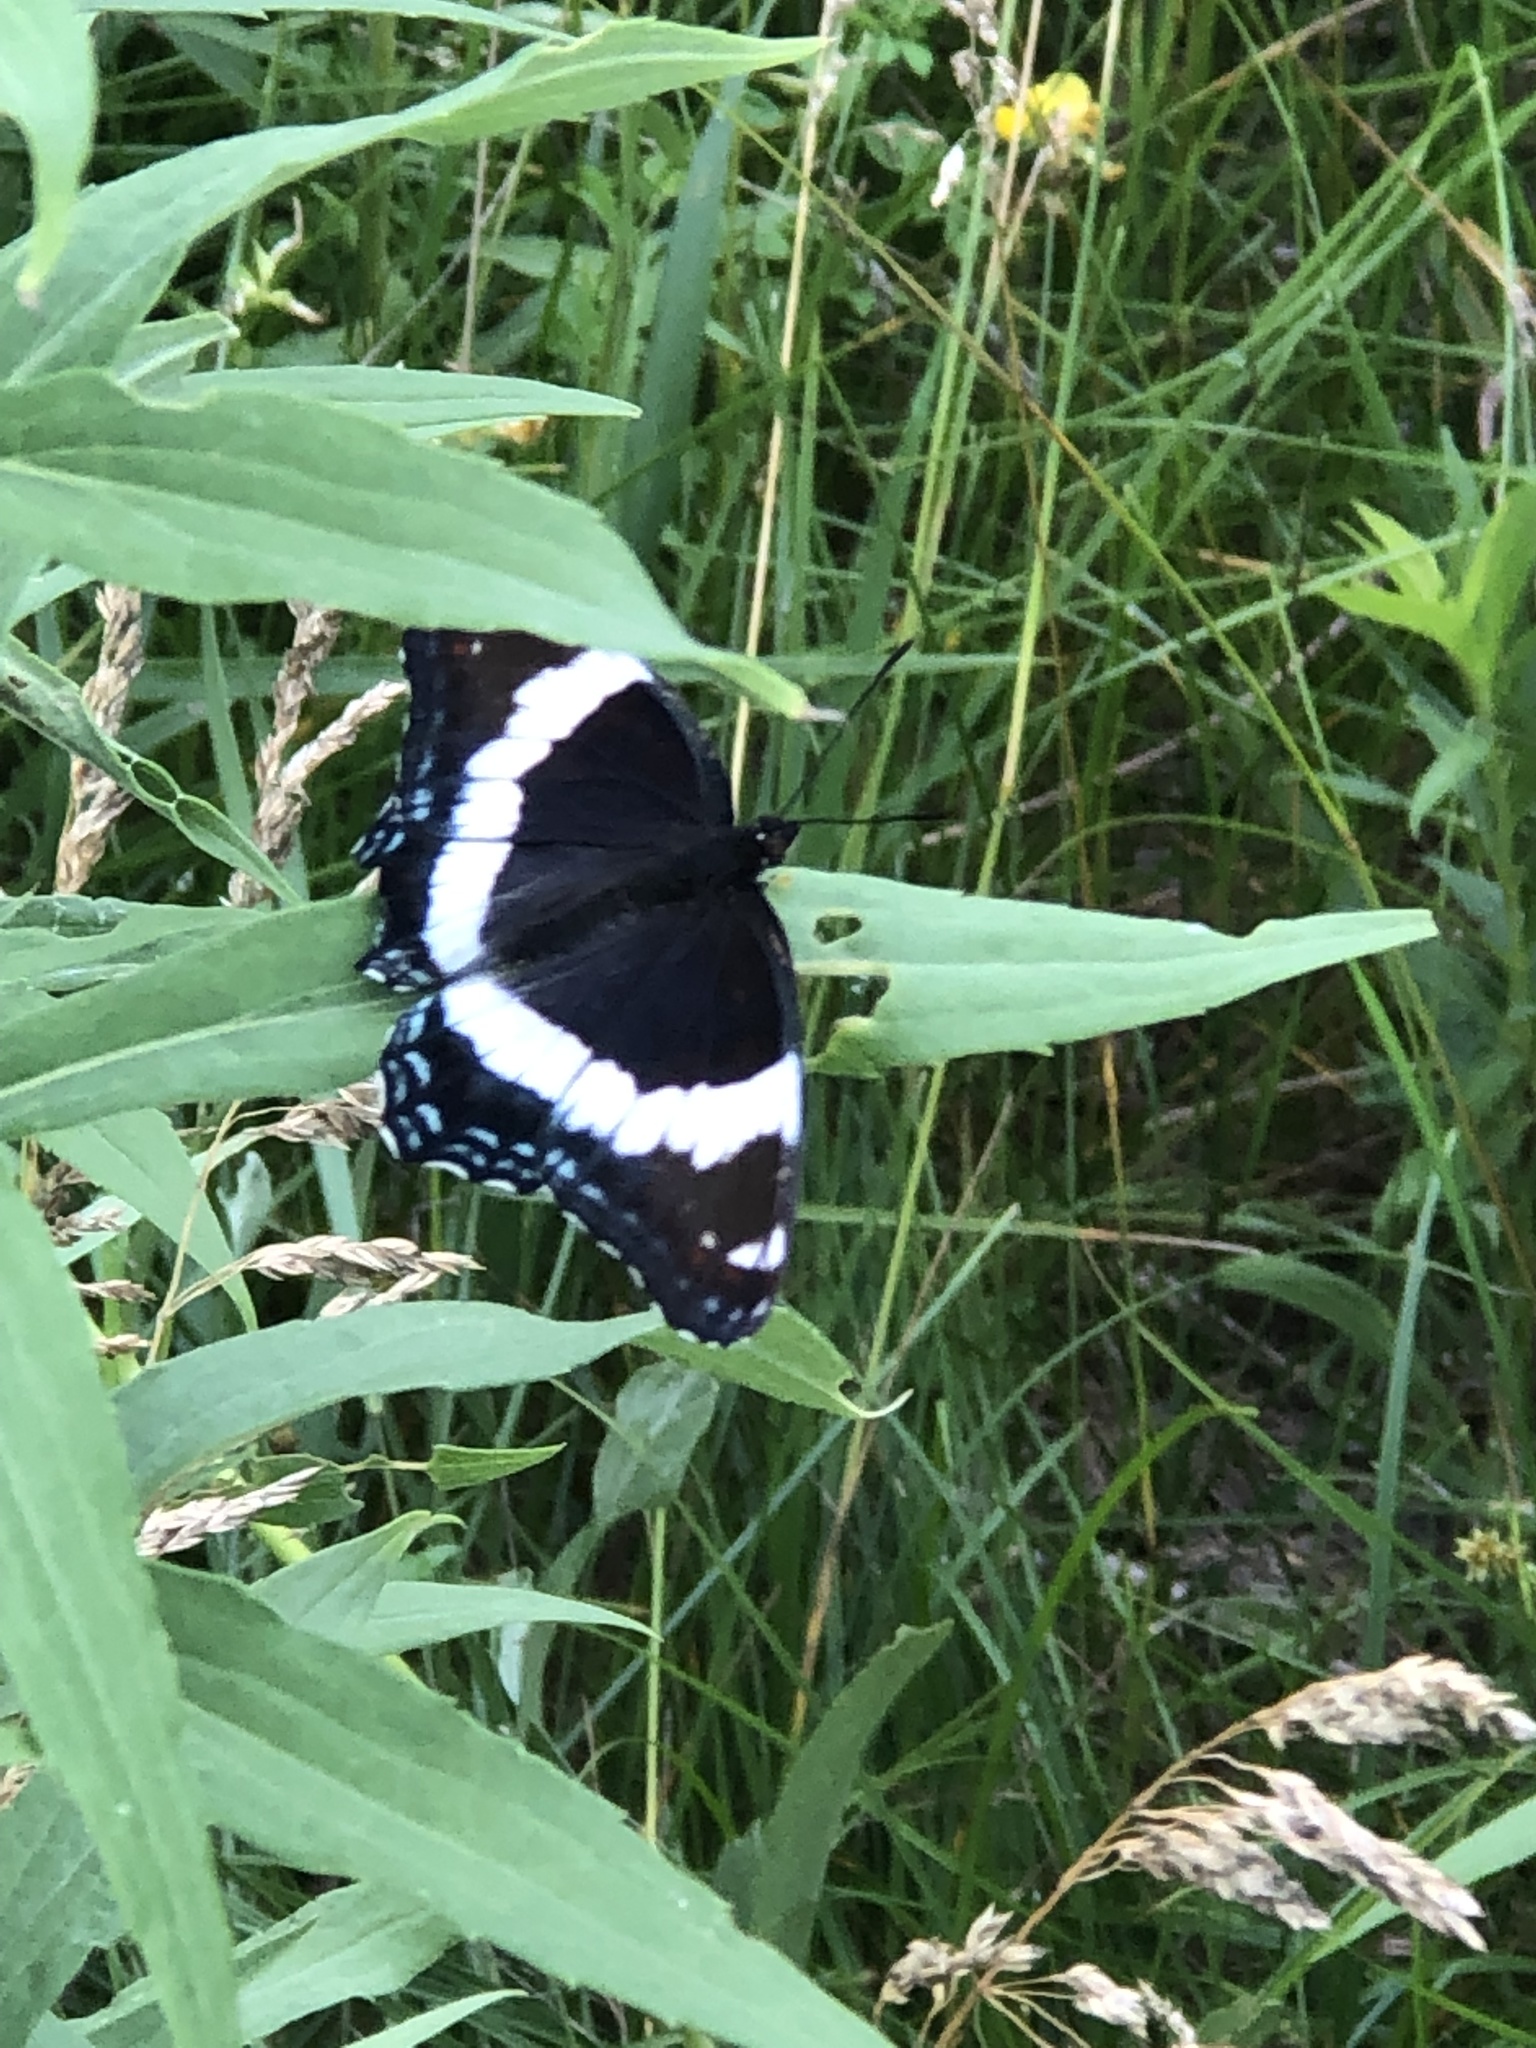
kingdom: Animalia
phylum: Arthropoda
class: Insecta
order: Lepidoptera
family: Nymphalidae
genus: Limenitis
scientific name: Limenitis arthemis
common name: Red-spotted admiral
